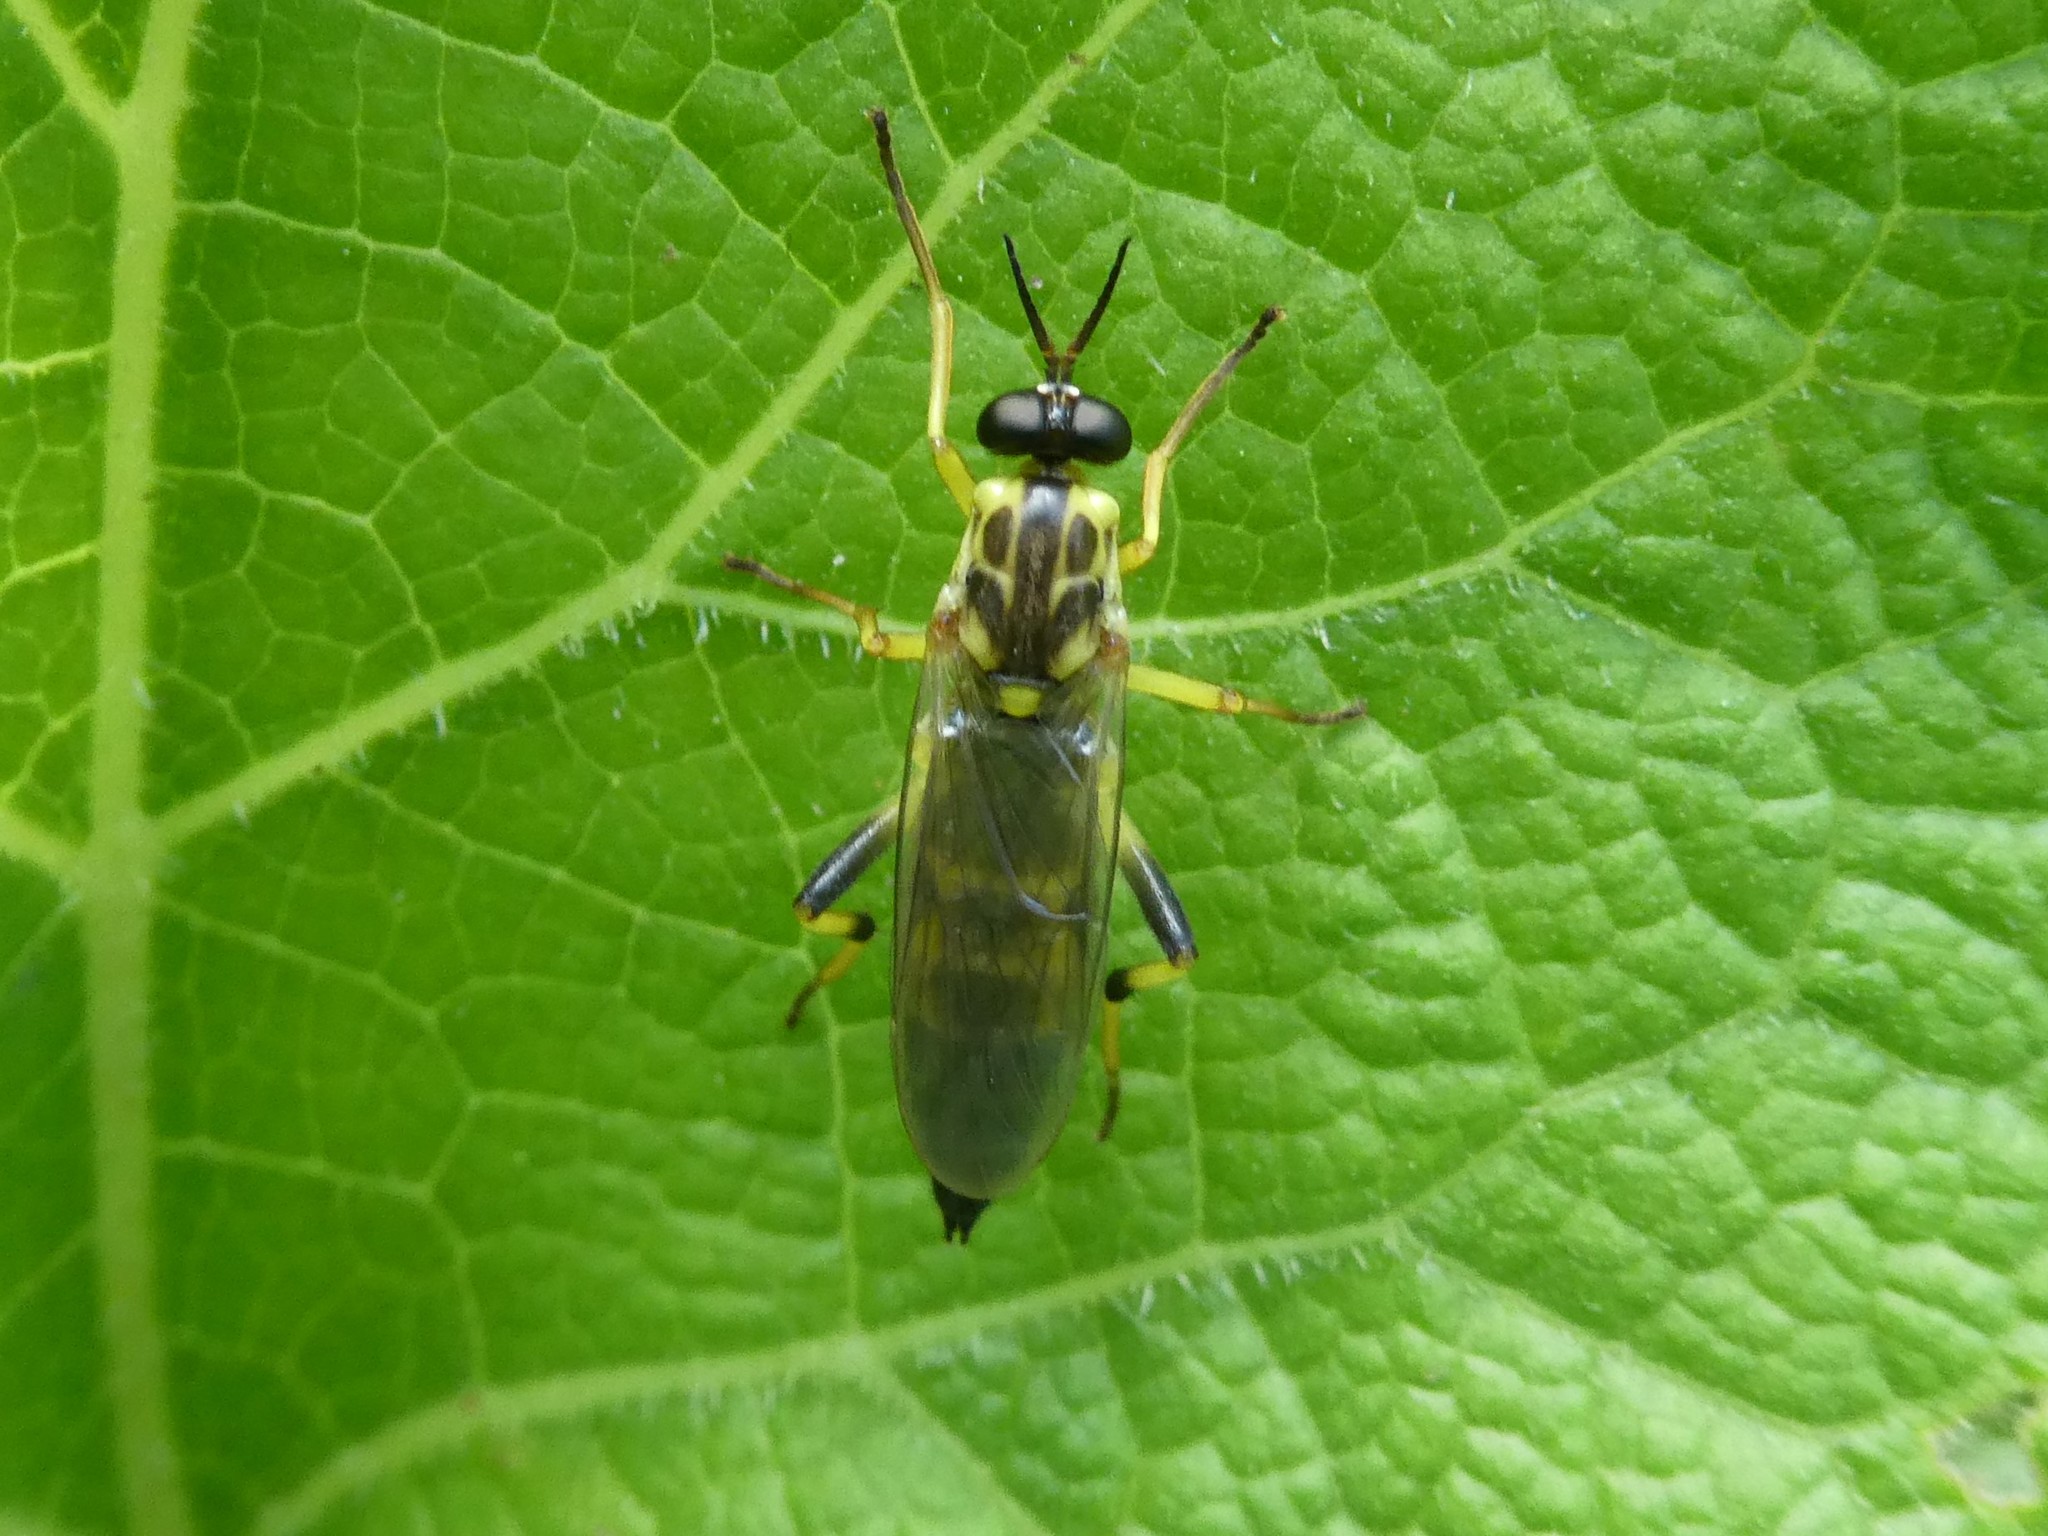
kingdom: Animalia
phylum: Arthropoda
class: Insecta
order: Diptera
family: Xylomyidae
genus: Xylomya
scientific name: Xylomya terminalis
